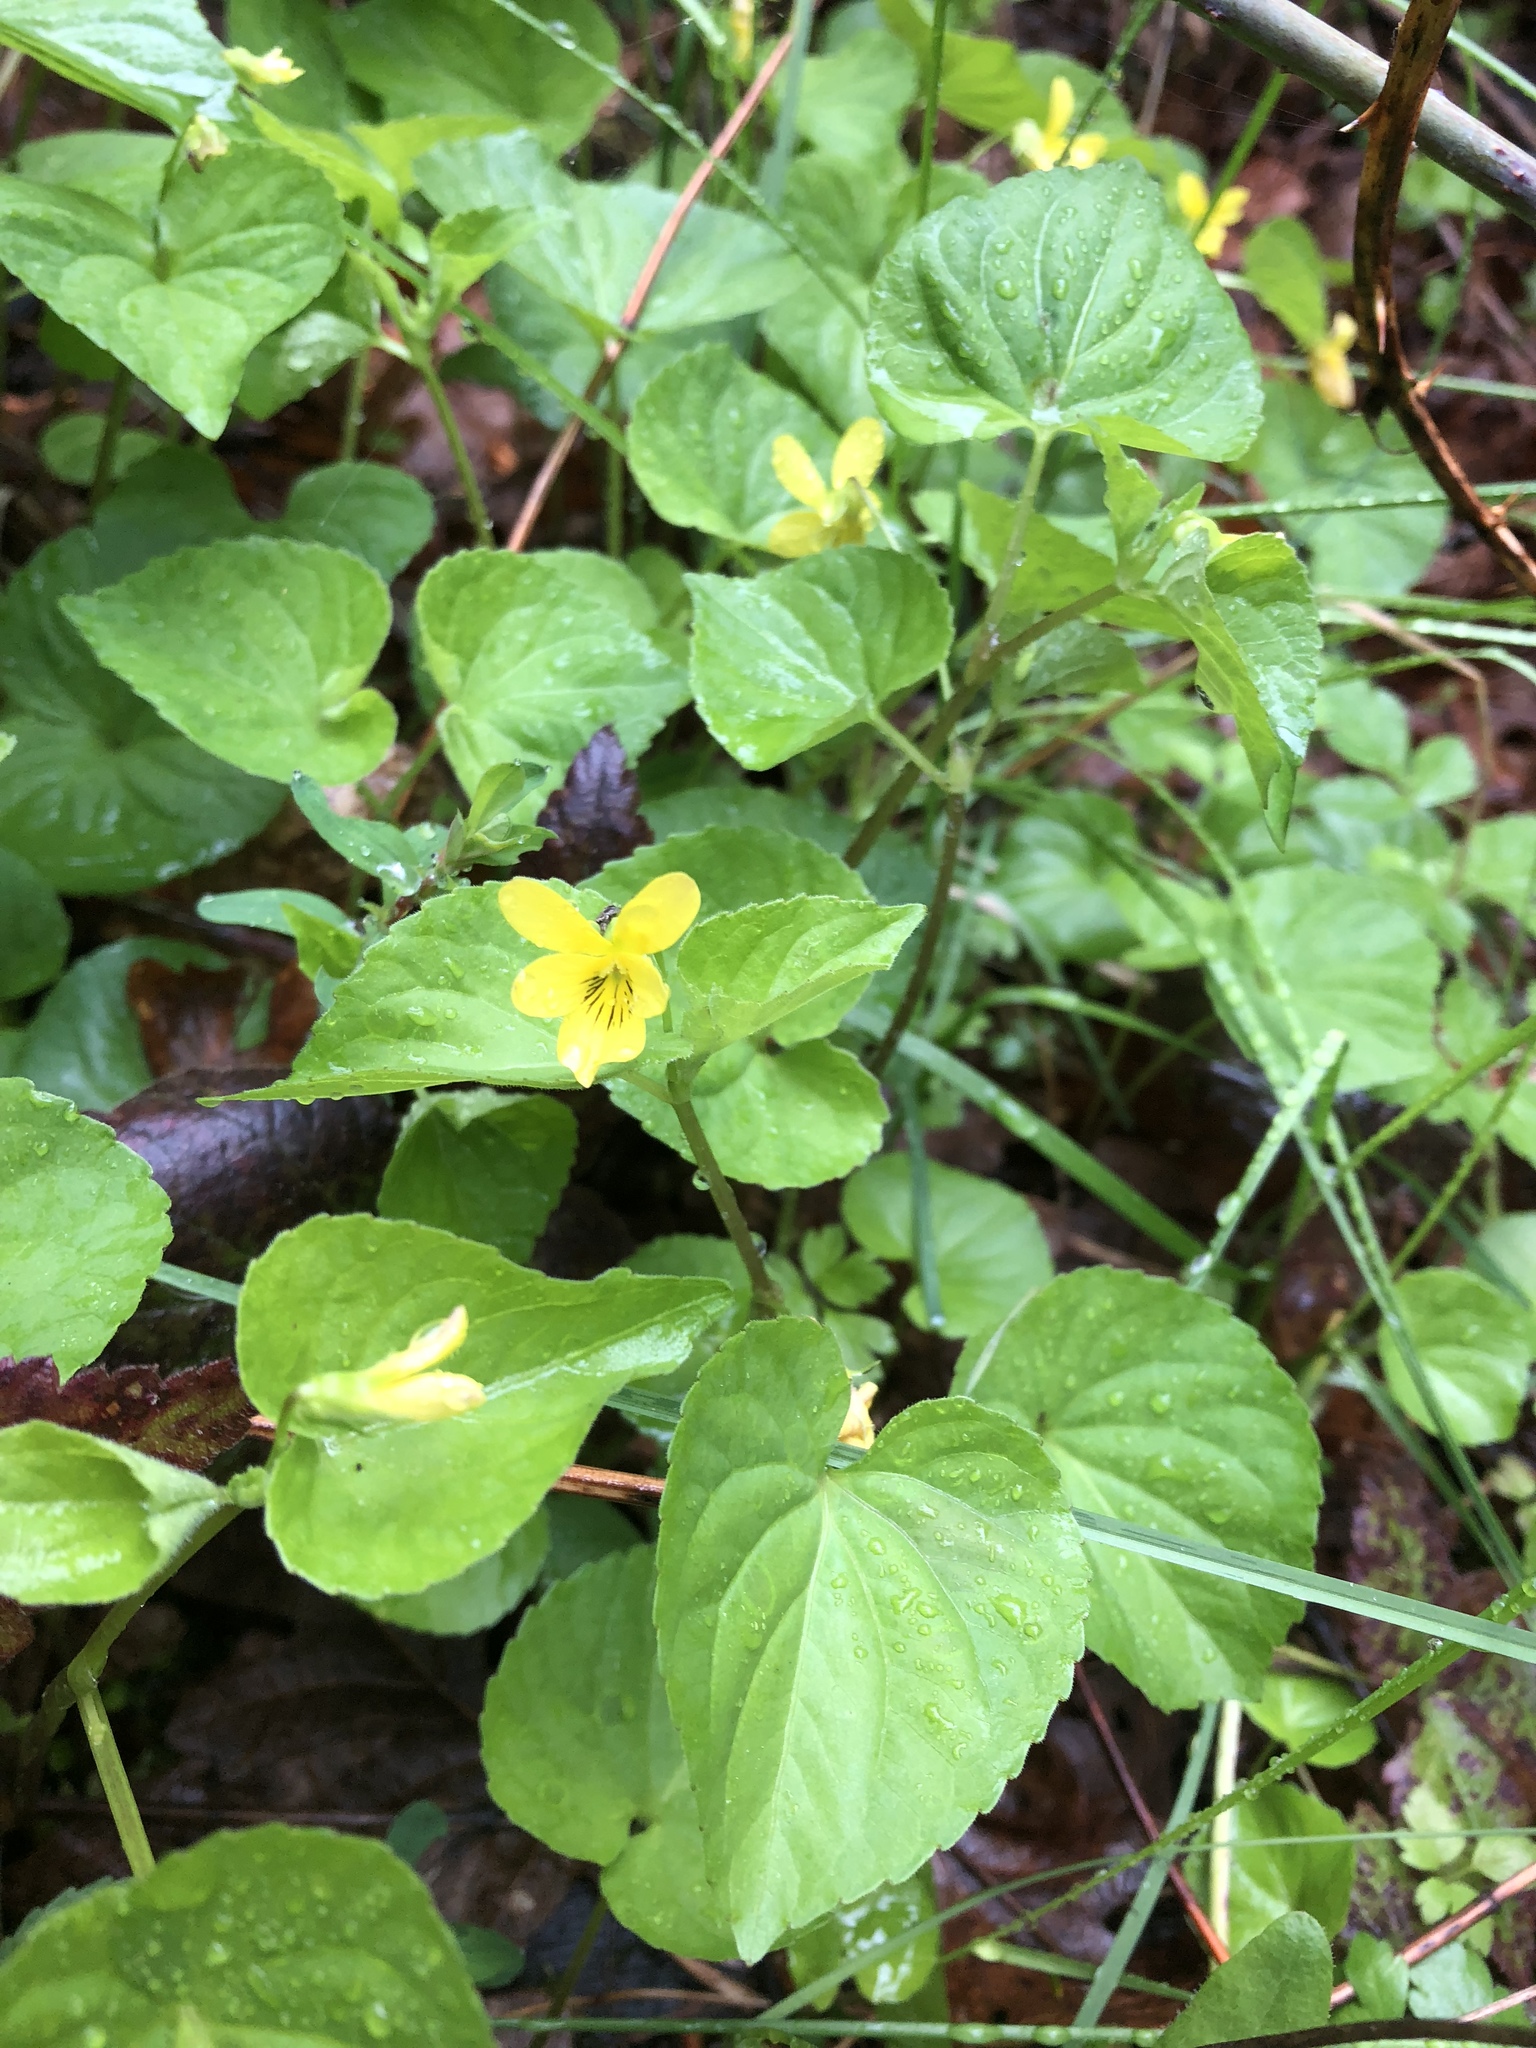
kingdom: Plantae
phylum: Tracheophyta
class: Magnoliopsida
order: Malpighiales
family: Violaceae
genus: Viola
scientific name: Viola glabella
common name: Stream violet
